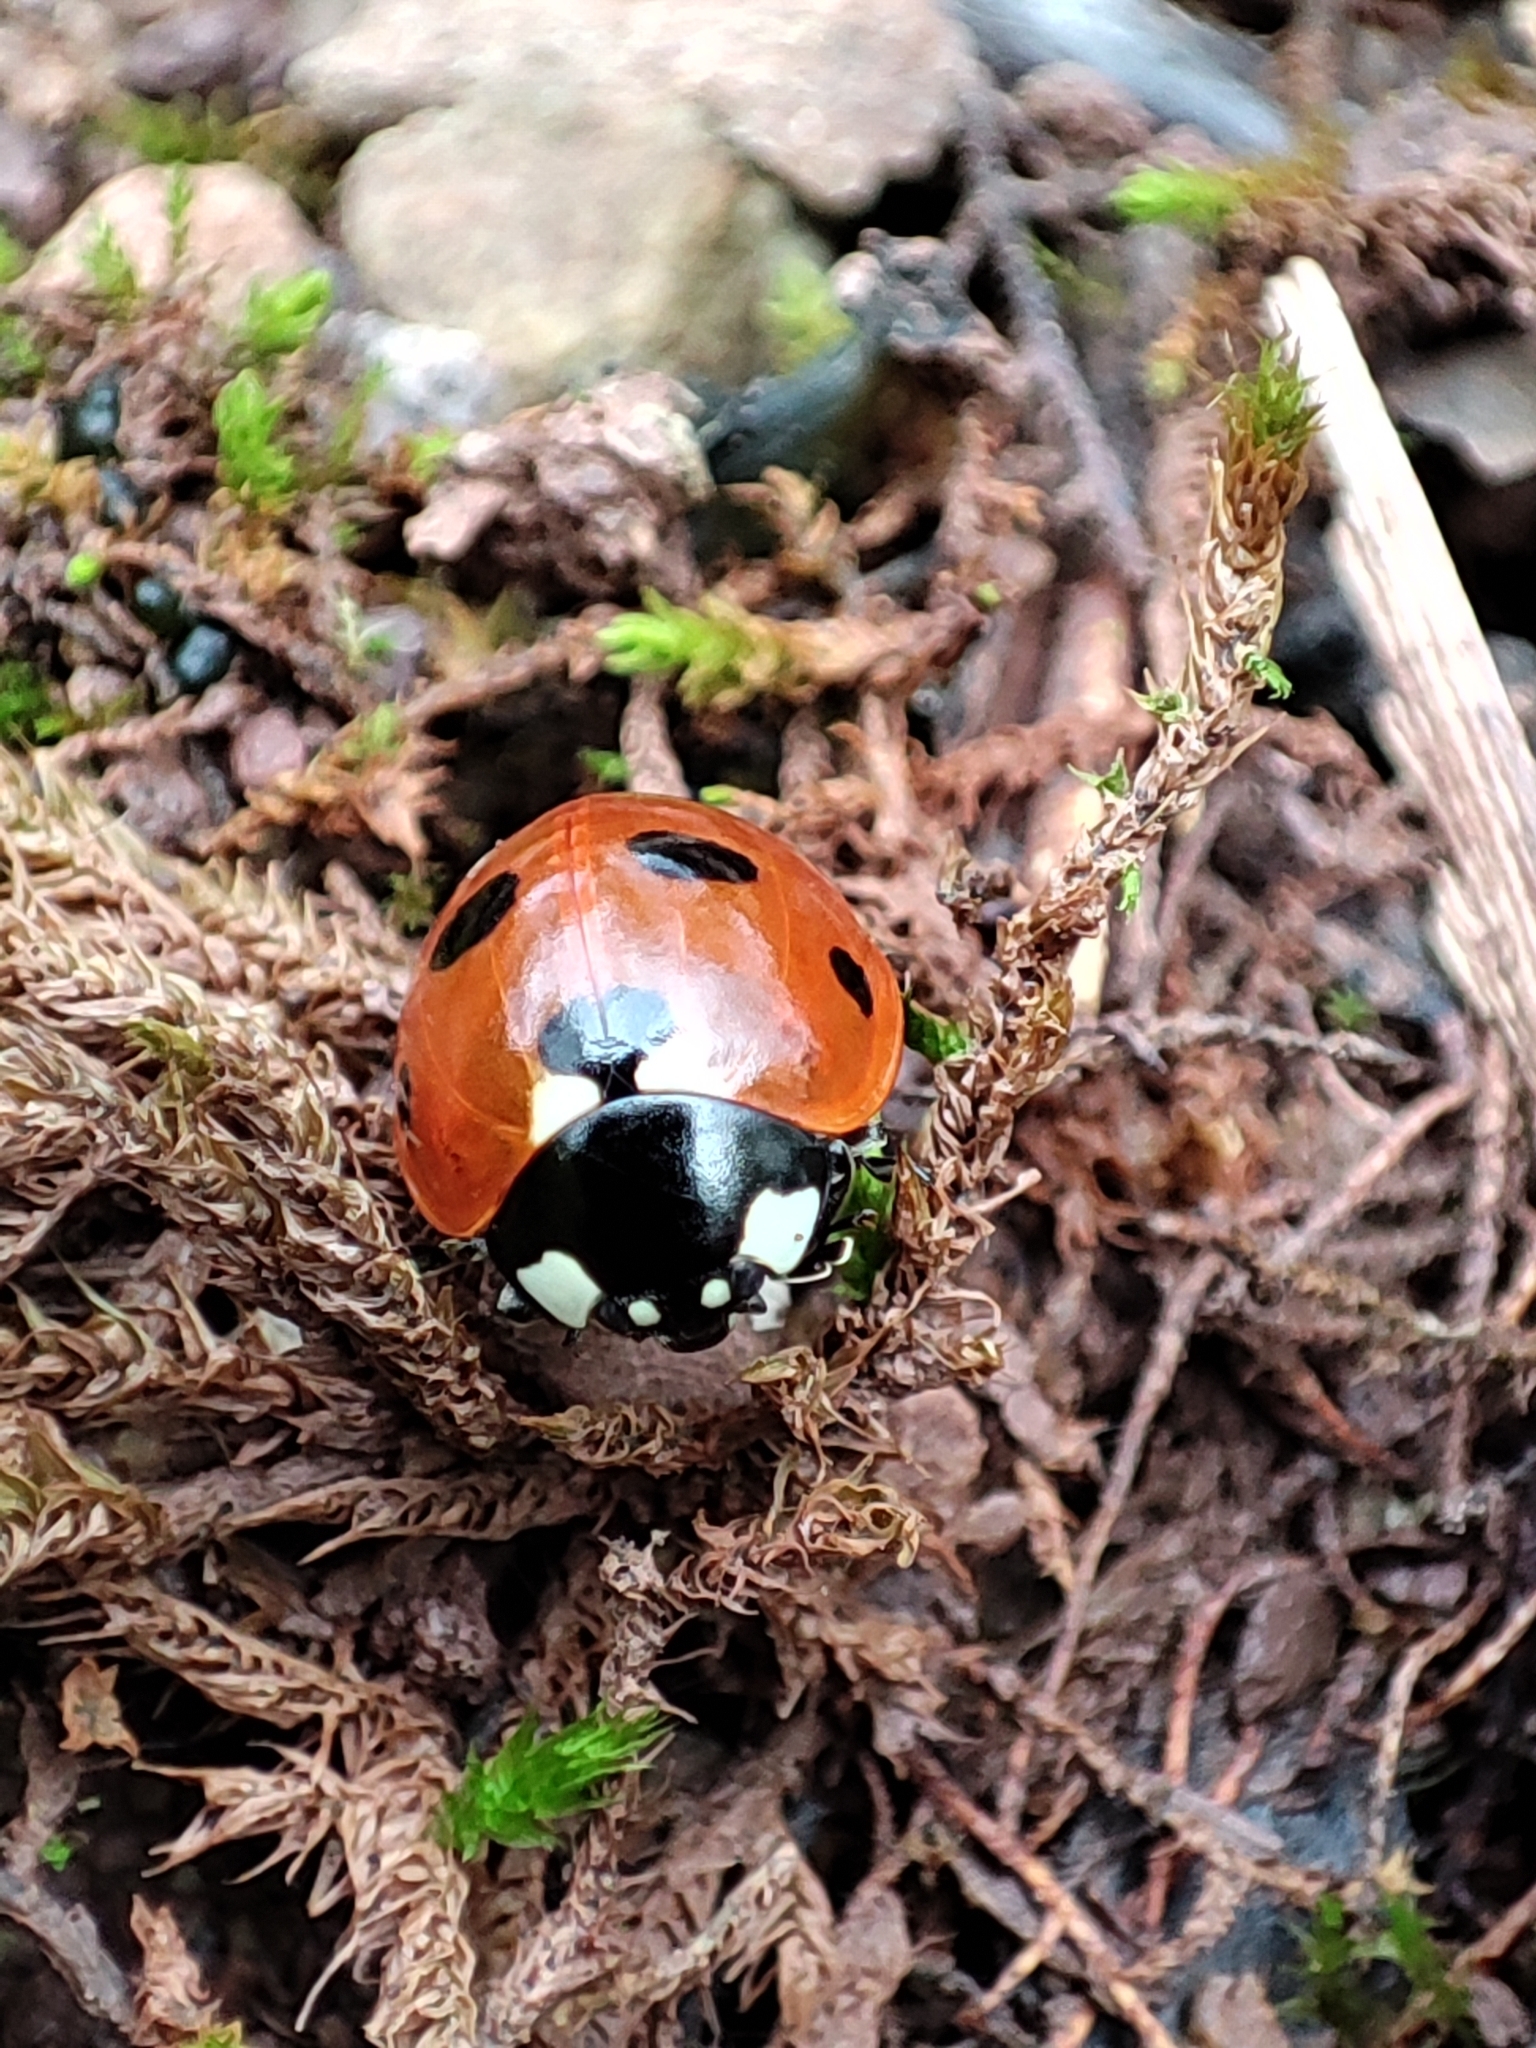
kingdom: Animalia
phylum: Arthropoda
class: Insecta
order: Coleoptera
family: Coccinellidae
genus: Coccinella
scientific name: Coccinella septempunctata
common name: Sevenspotted lady beetle
